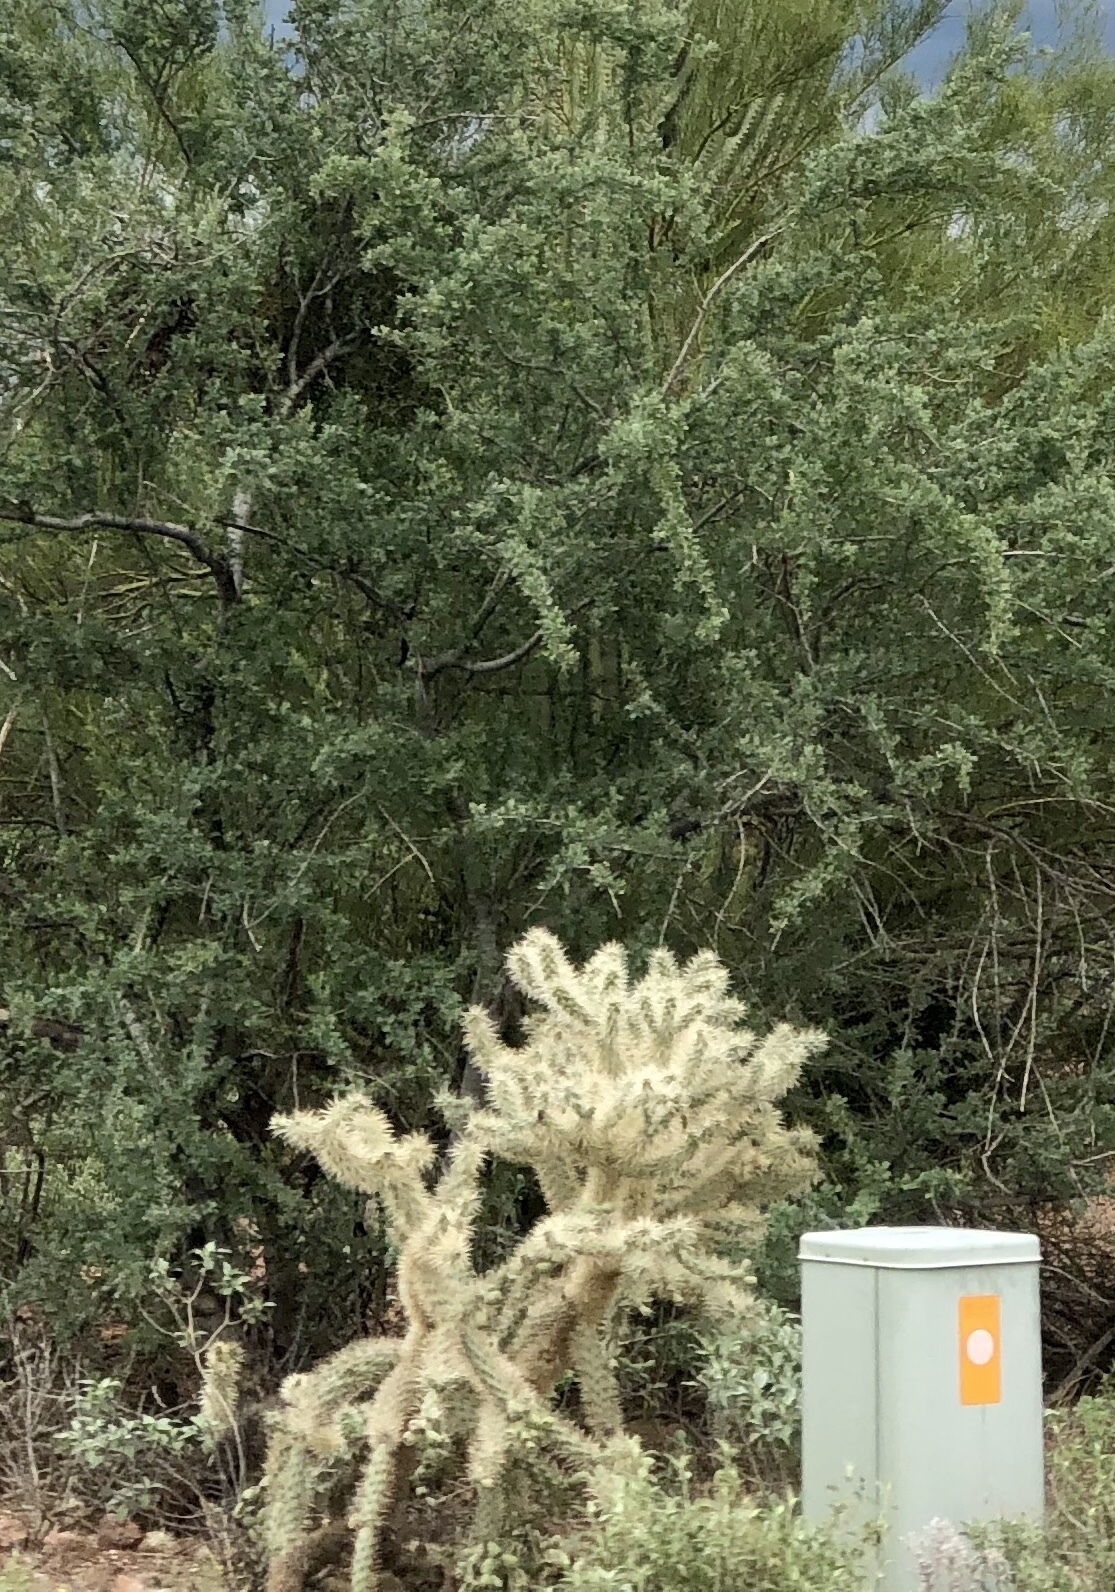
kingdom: Plantae
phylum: Tracheophyta
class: Magnoliopsida
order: Fabales
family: Fabaceae
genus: Olneya
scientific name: Olneya tesota
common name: Desert ironwood
